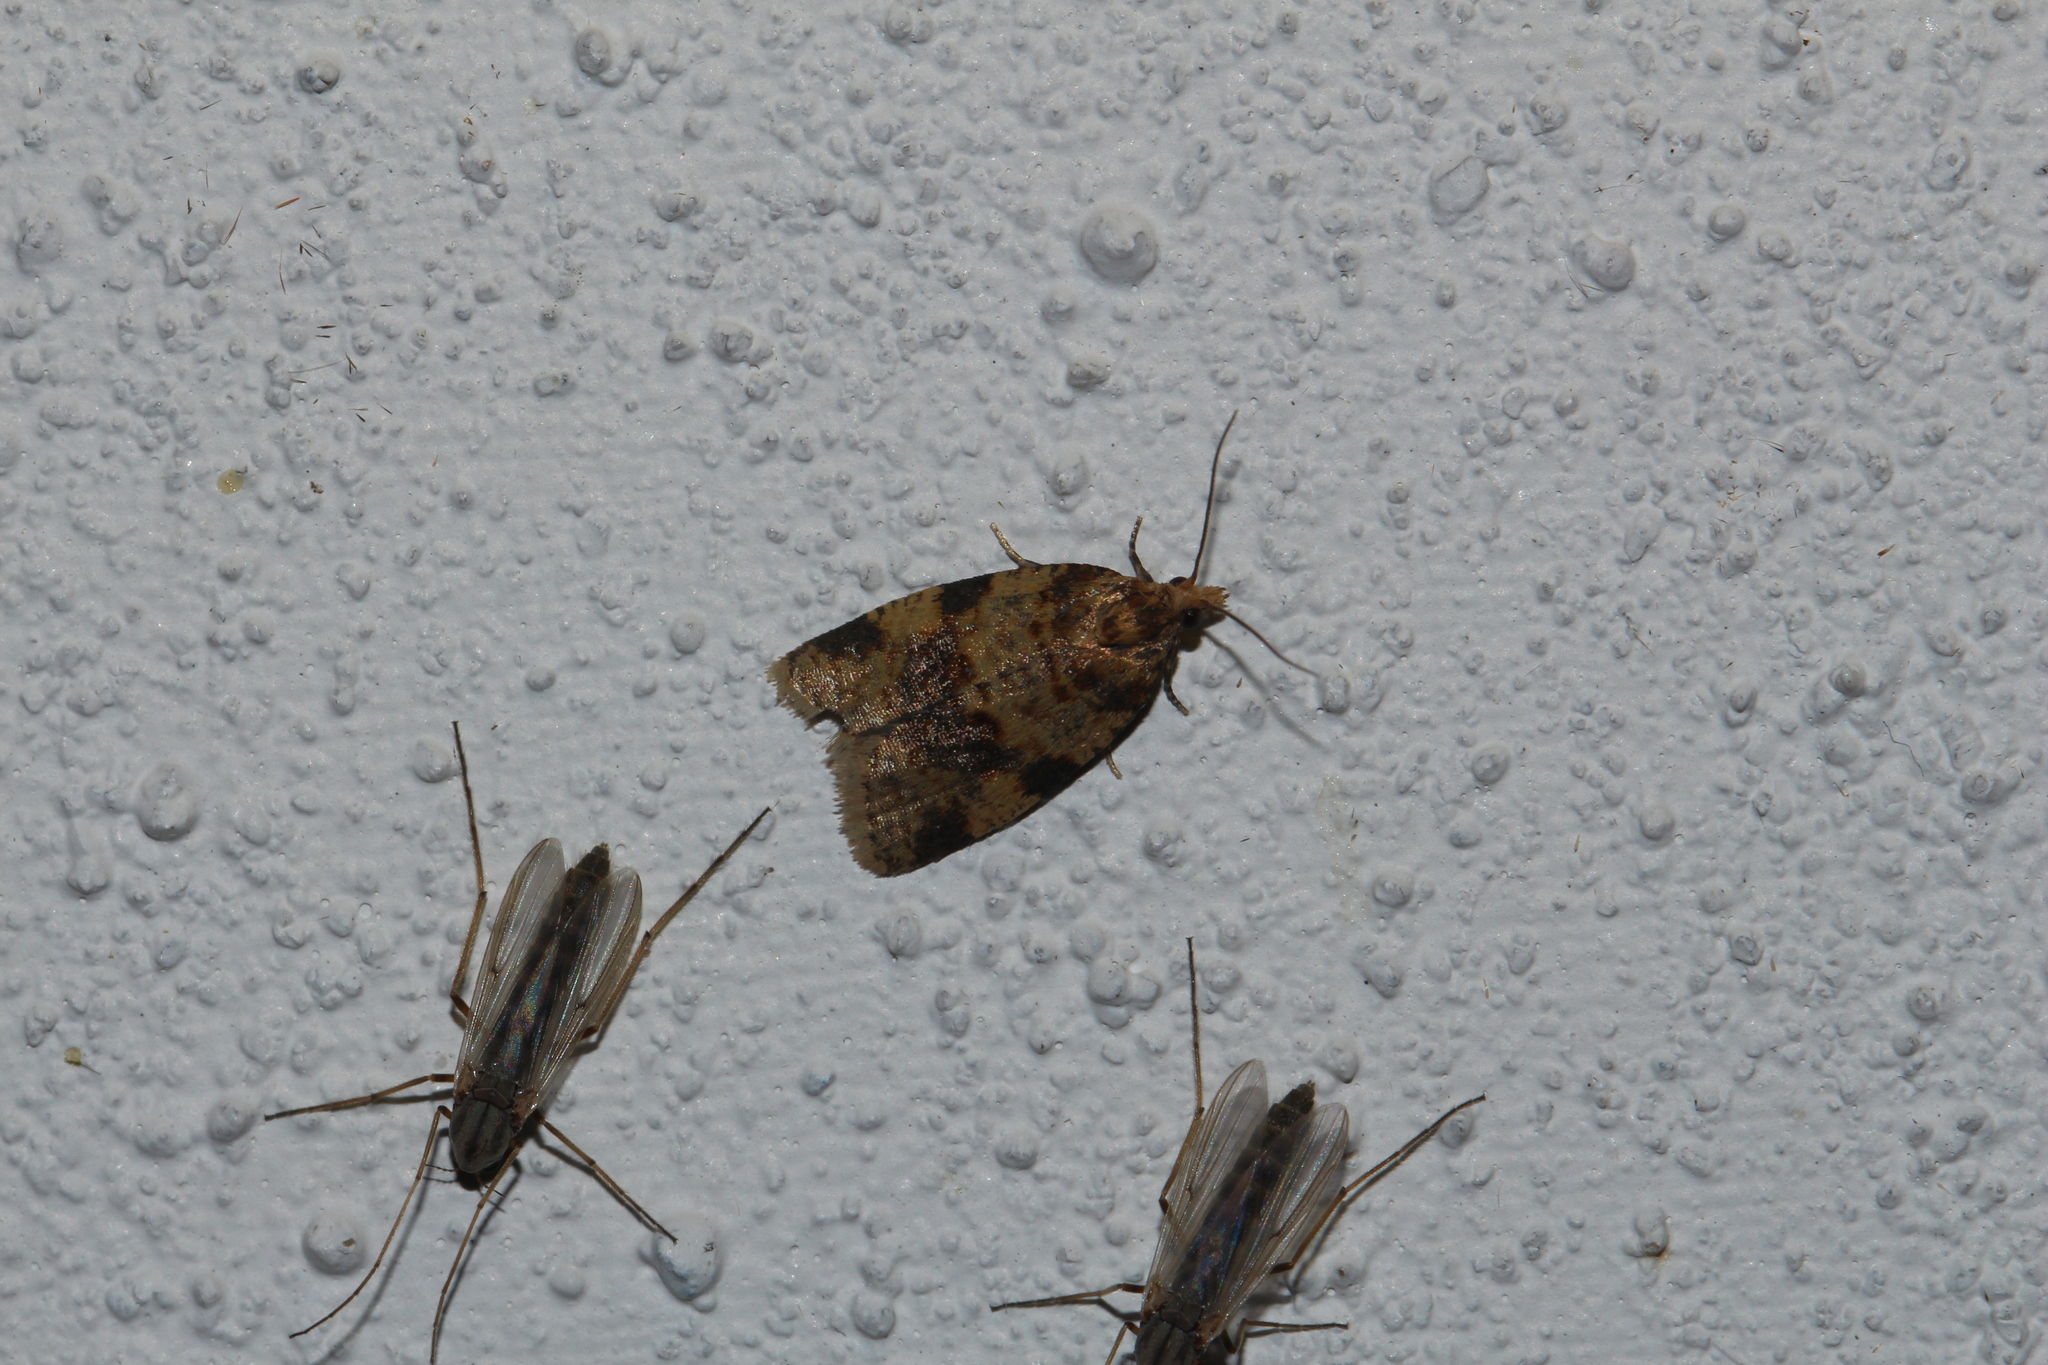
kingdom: Animalia
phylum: Arthropoda
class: Insecta
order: Lepidoptera
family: Tortricidae
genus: Epagoge
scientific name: Epagoge grotiana
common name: Brown-barred twist
